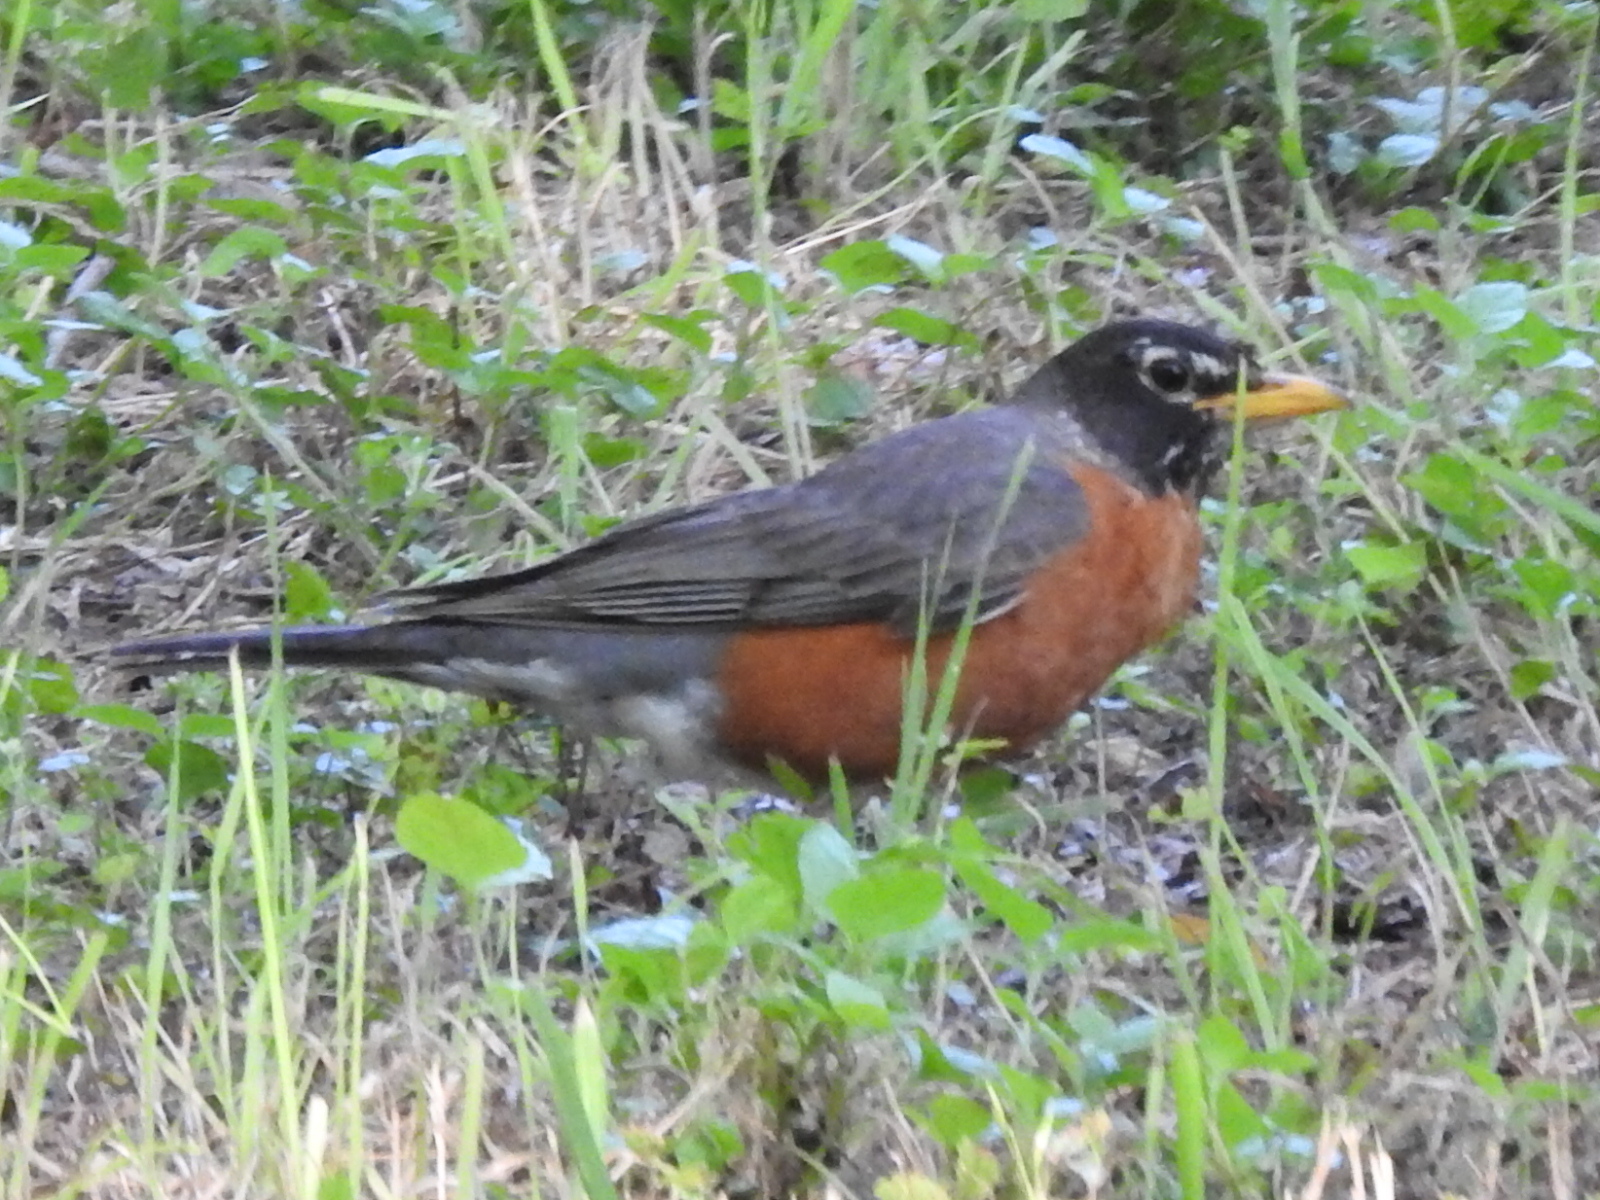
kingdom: Animalia
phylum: Chordata
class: Aves
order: Passeriformes
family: Turdidae
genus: Turdus
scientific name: Turdus migratorius
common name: American robin
